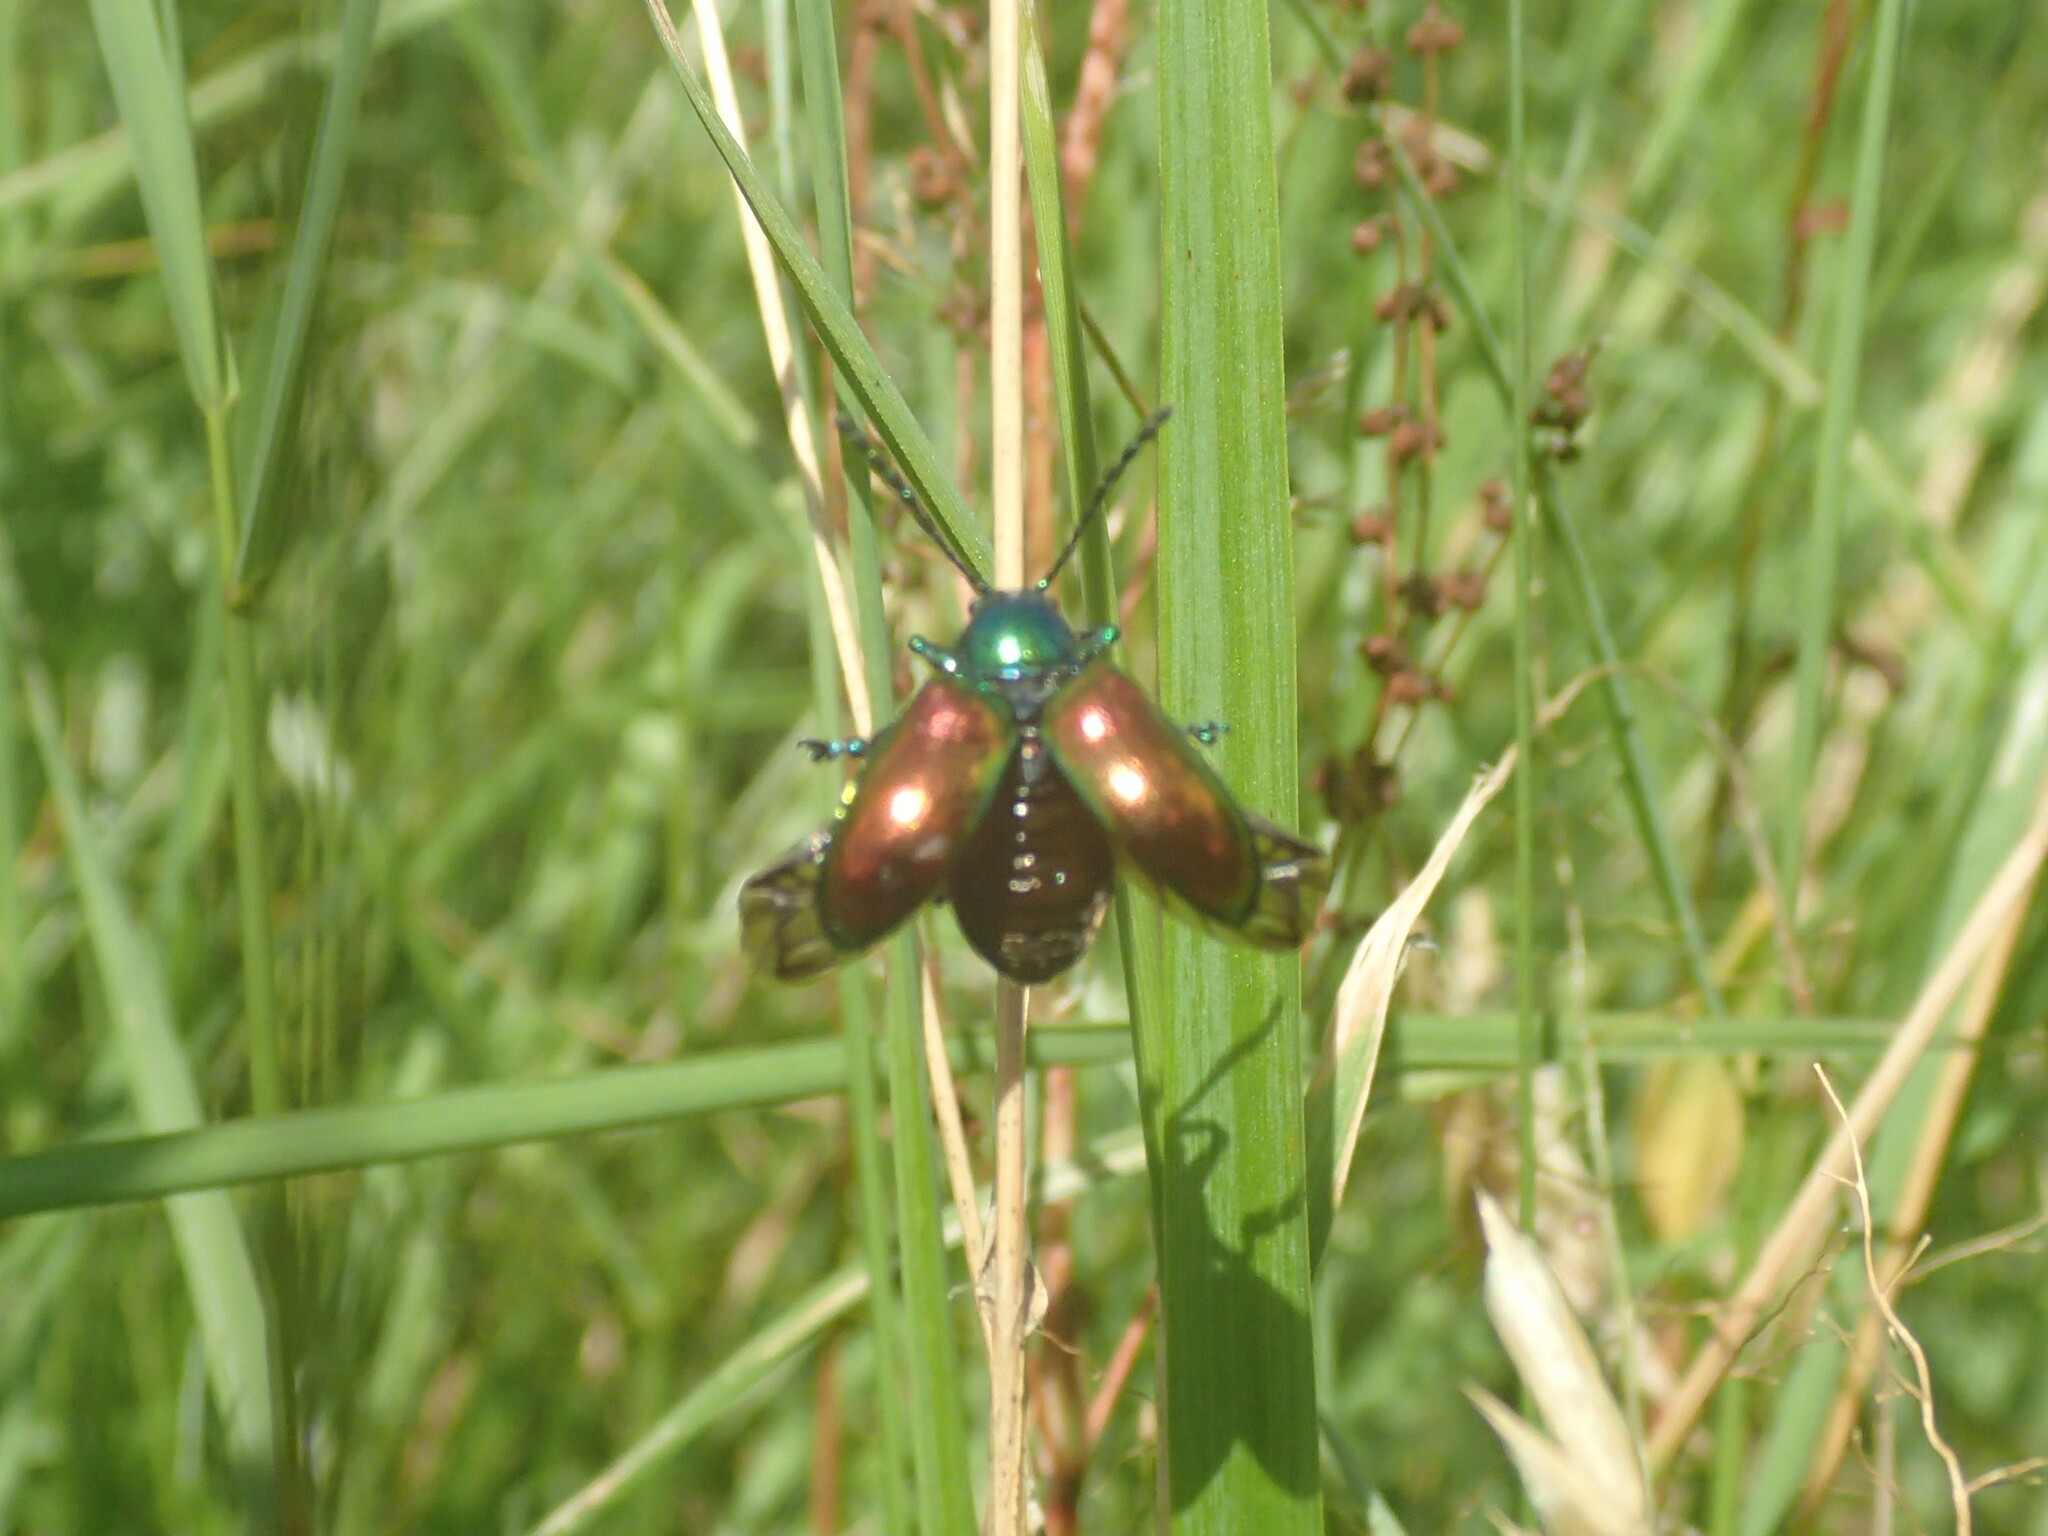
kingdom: Animalia
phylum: Arthropoda
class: Insecta
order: Coleoptera
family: Chrysomelidae
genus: Chrysochus
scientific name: Chrysochus auratus
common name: Dogbane leaf beetle
